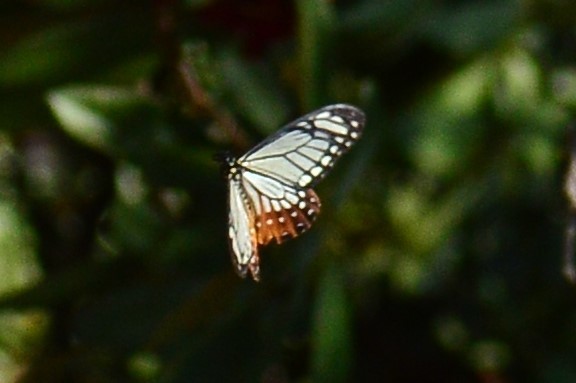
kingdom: Animalia
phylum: Arthropoda
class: Insecta
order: Lepidoptera
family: Lycaenidae
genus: Plebicula
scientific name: Plebicula escheri
